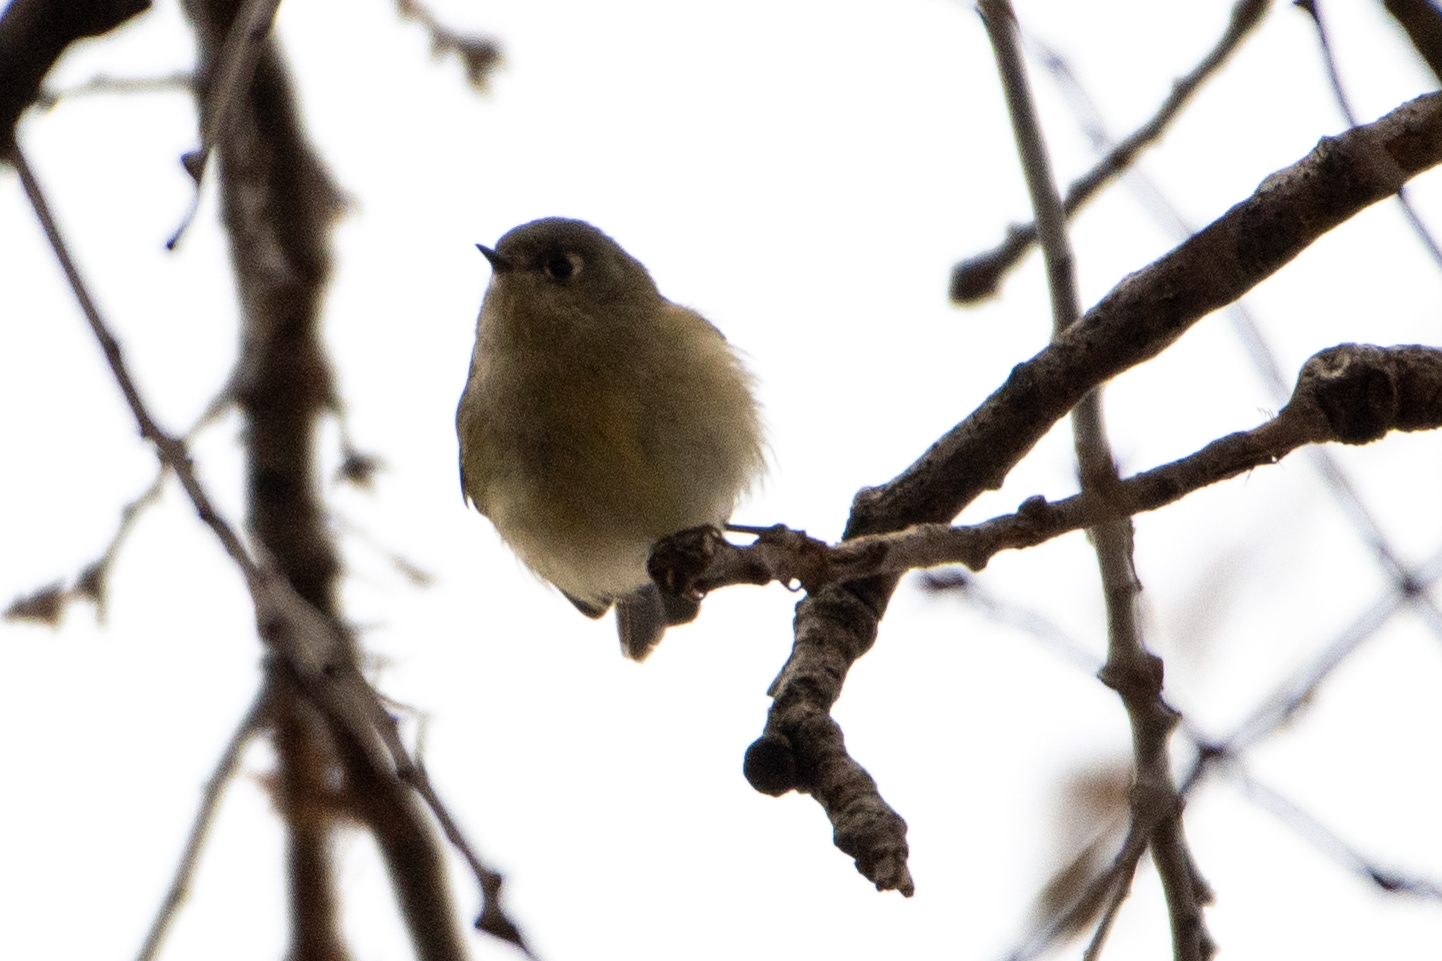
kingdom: Animalia
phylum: Chordata
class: Aves
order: Passeriformes
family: Regulidae
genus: Regulus
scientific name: Regulus calendula
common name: Ruby-crowned kinglet
